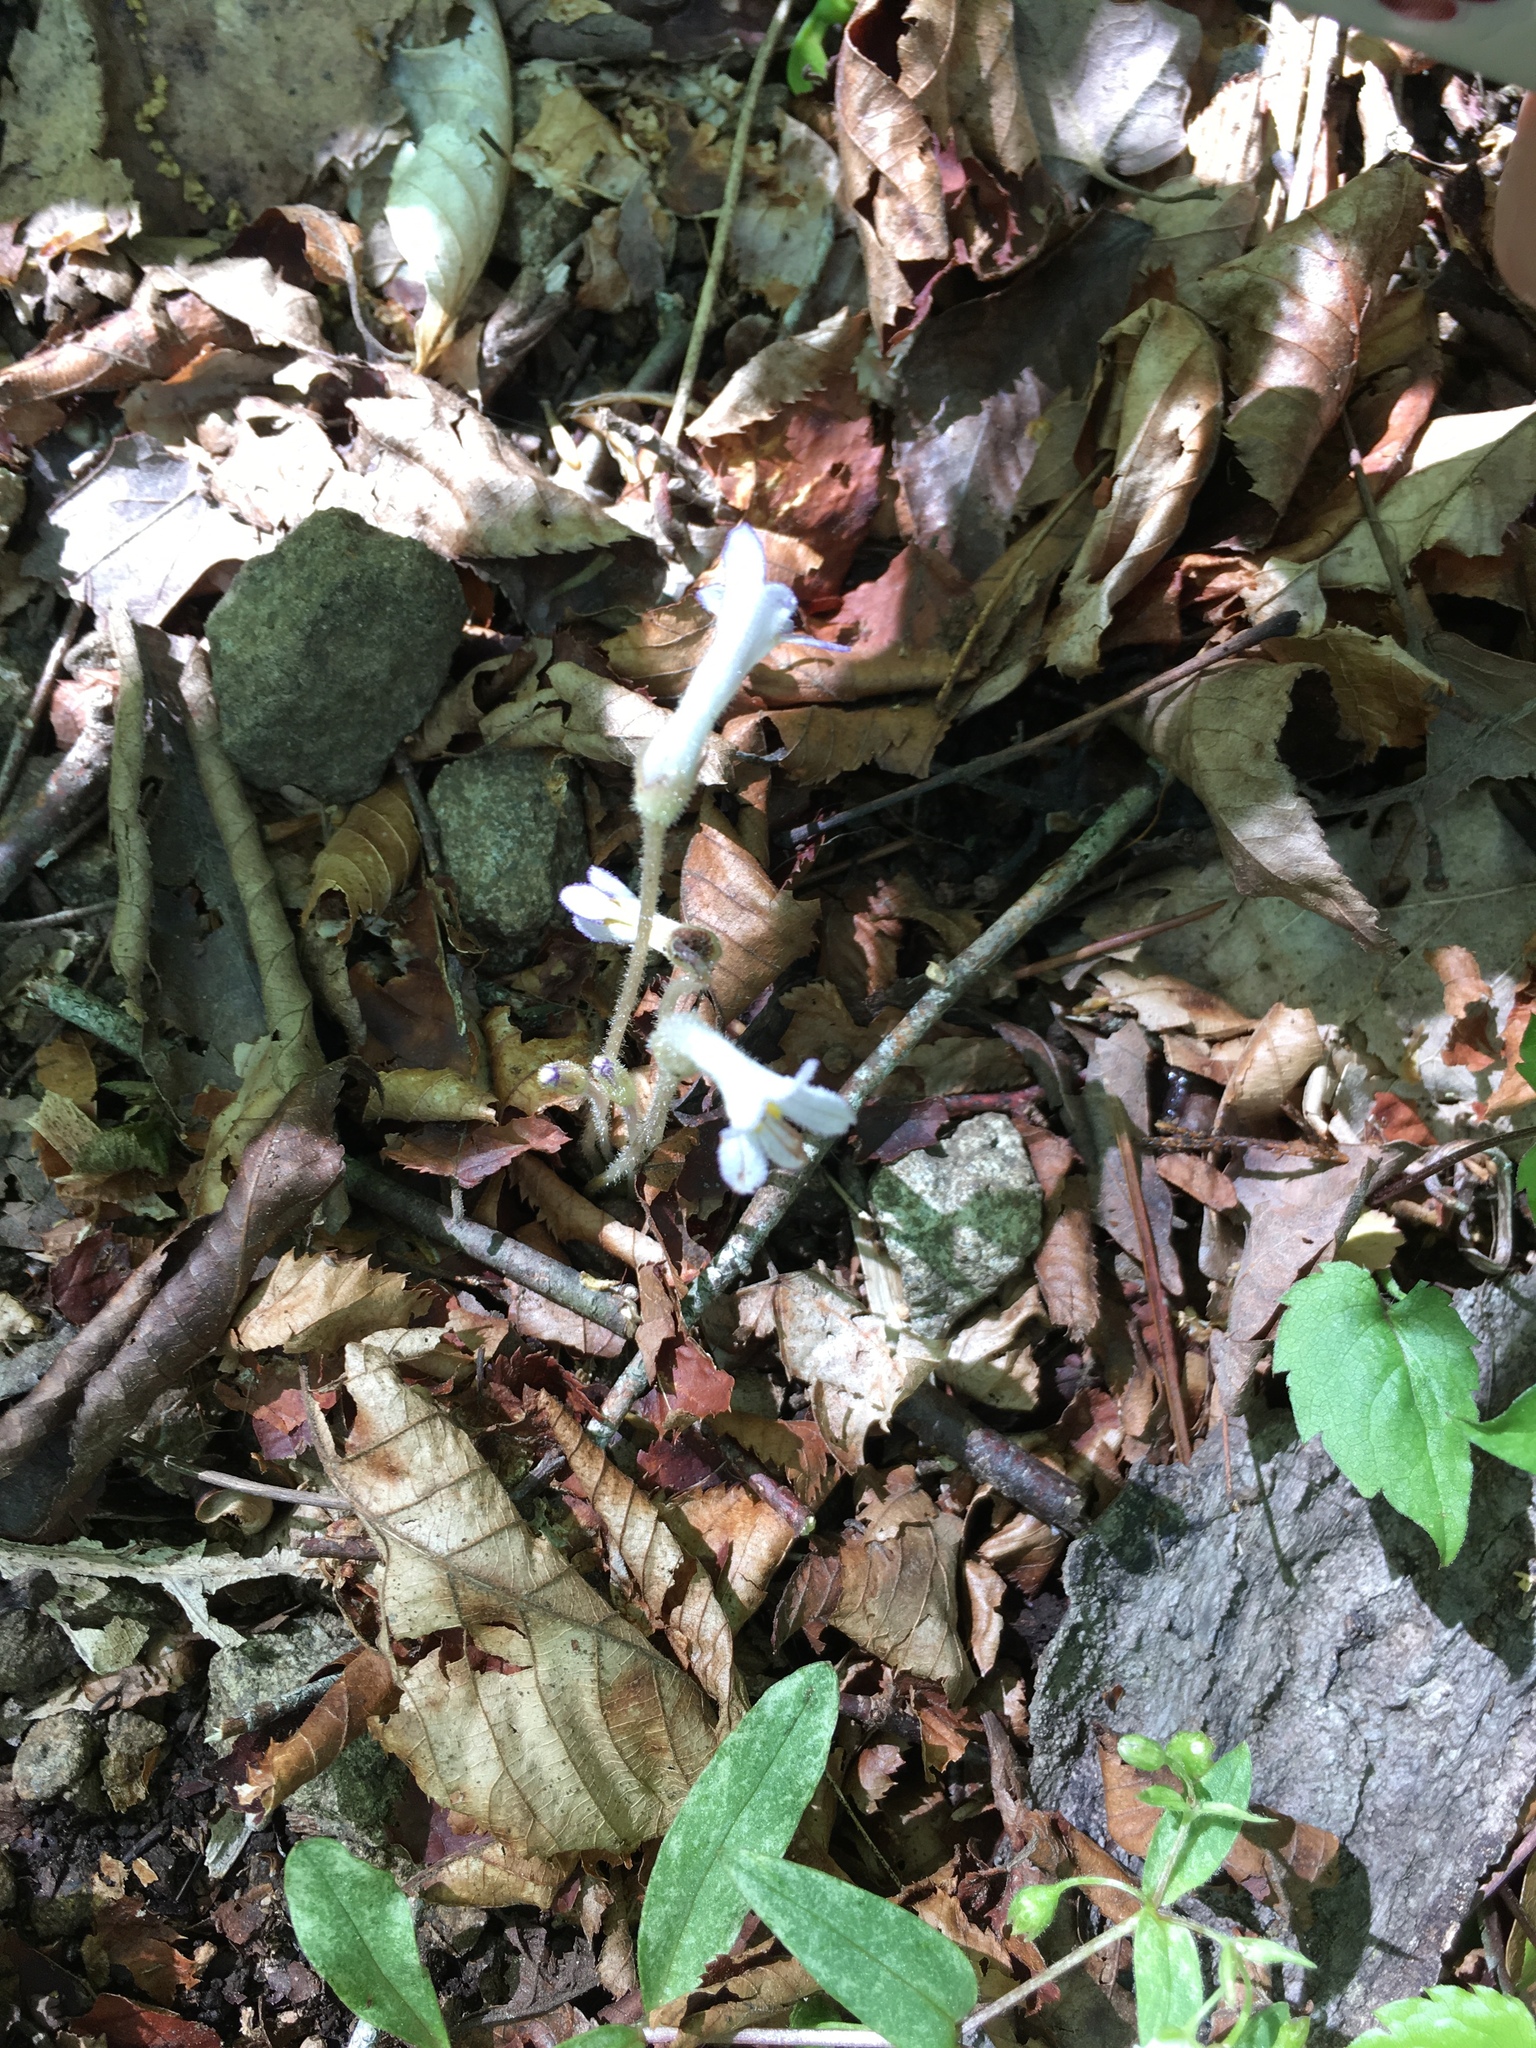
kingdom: Plantae
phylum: Tracheophyta
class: Magnoliopsida
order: Lamiales
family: Orobanchaceae
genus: Aphyllon
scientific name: Aphyllon uniflorum
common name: One-flowered broomrape
